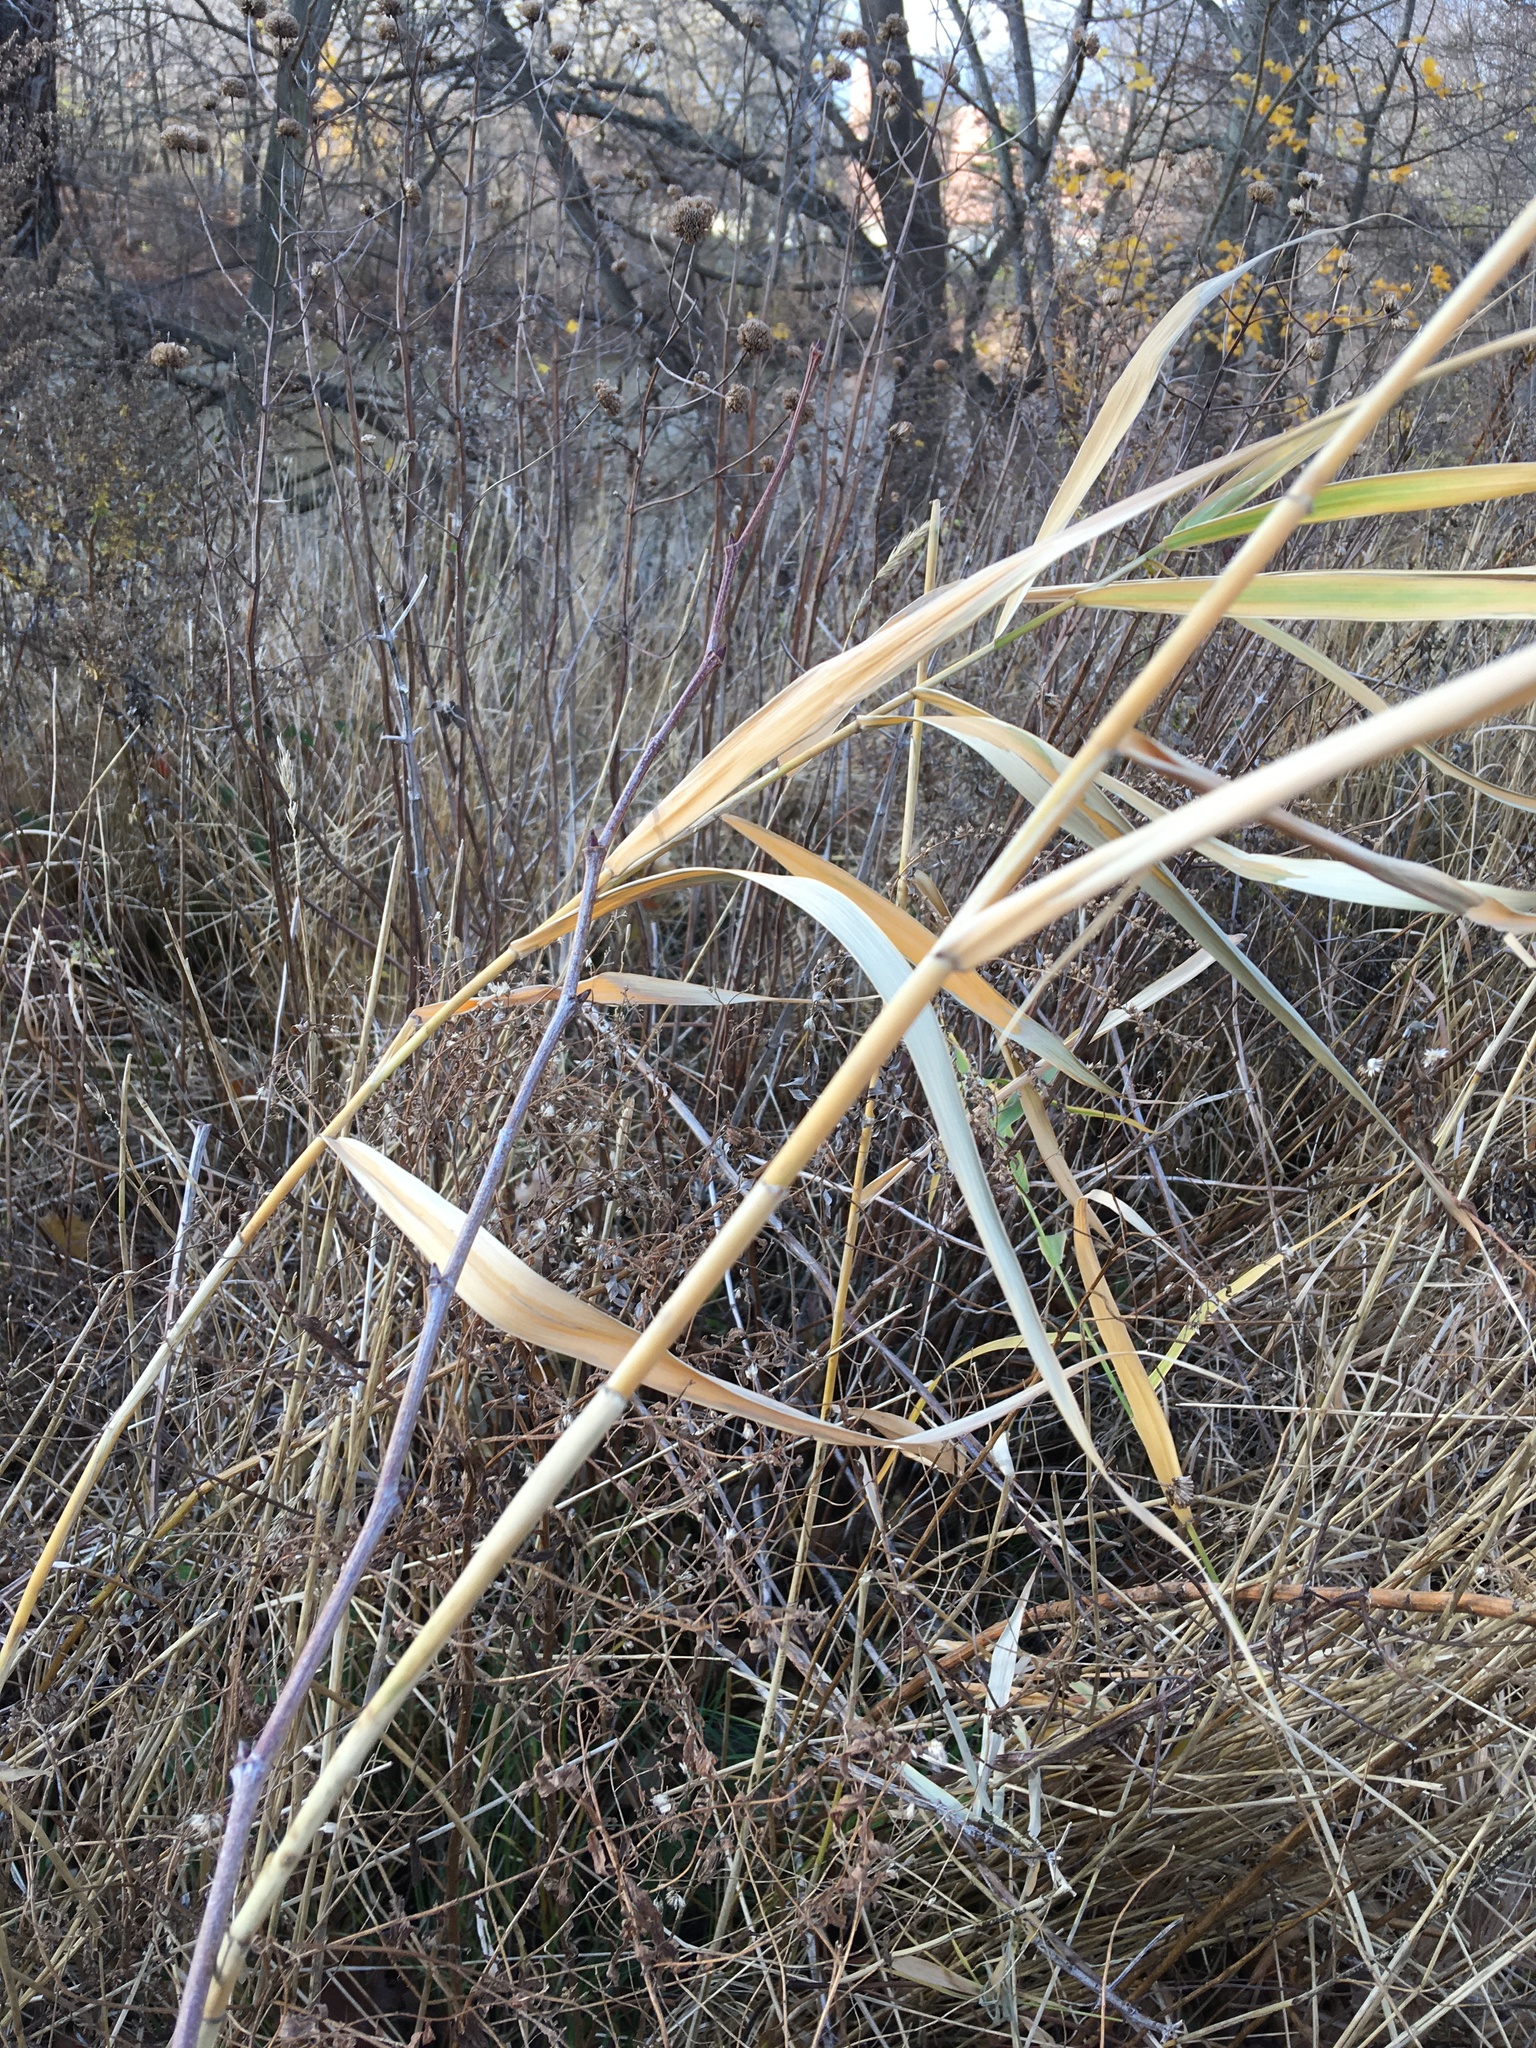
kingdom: Plantae
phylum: Tracheophyta
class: Liliopsida
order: Poales
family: Poaceae
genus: Phragmites
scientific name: Phragmites australis
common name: Common reed
